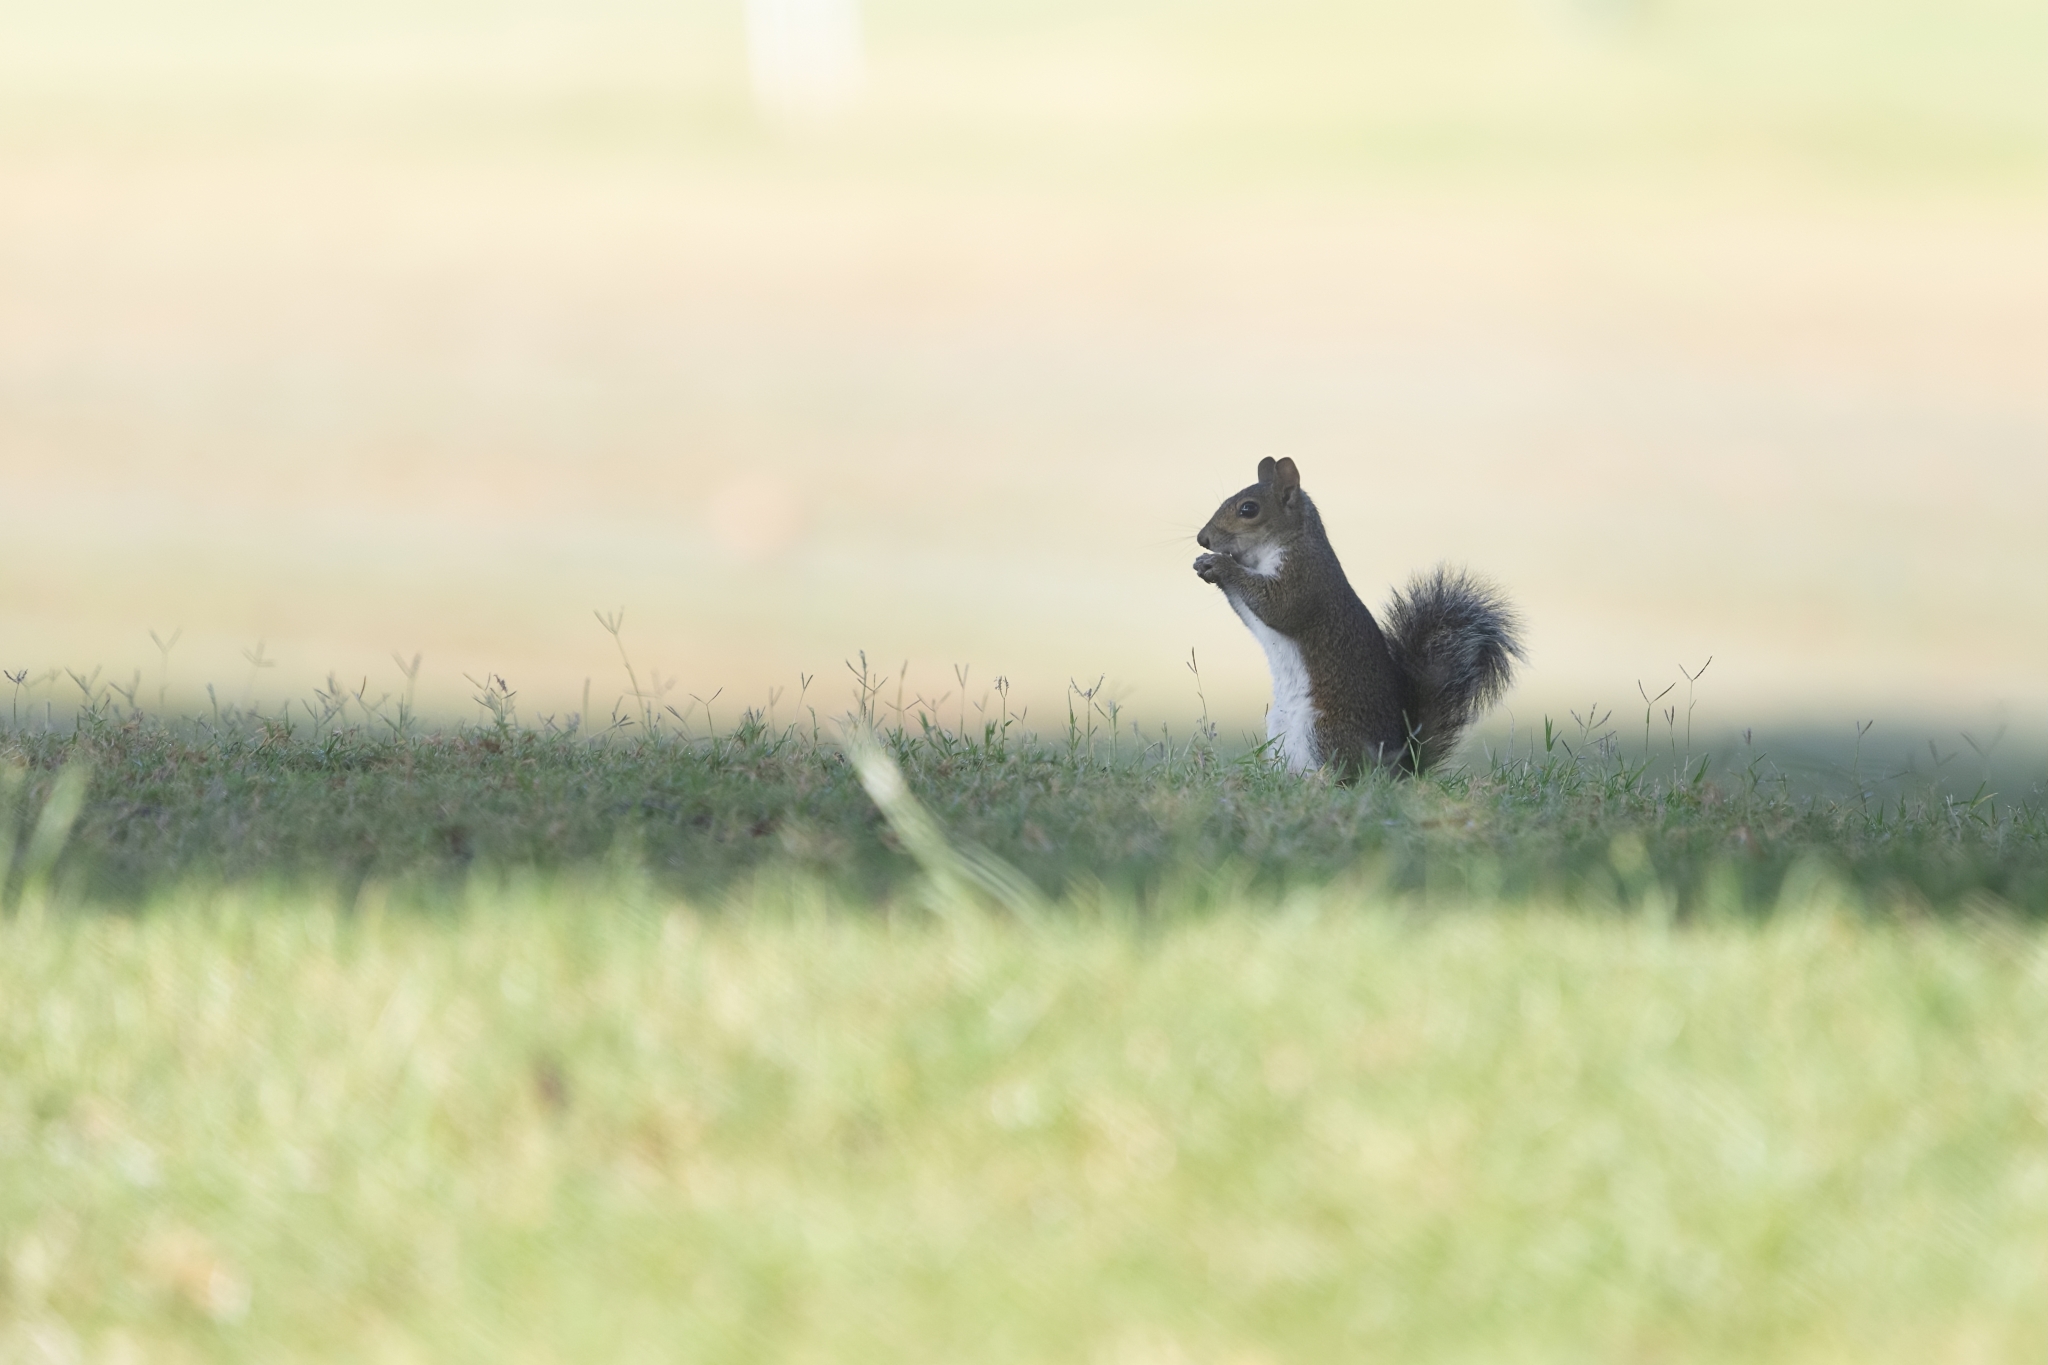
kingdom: Animalia
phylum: Chordata
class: Mammalia
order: Rodentia
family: Sciuridae
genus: Sciurus
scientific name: Sciurus carolinensis
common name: Eastern gray squirrel
